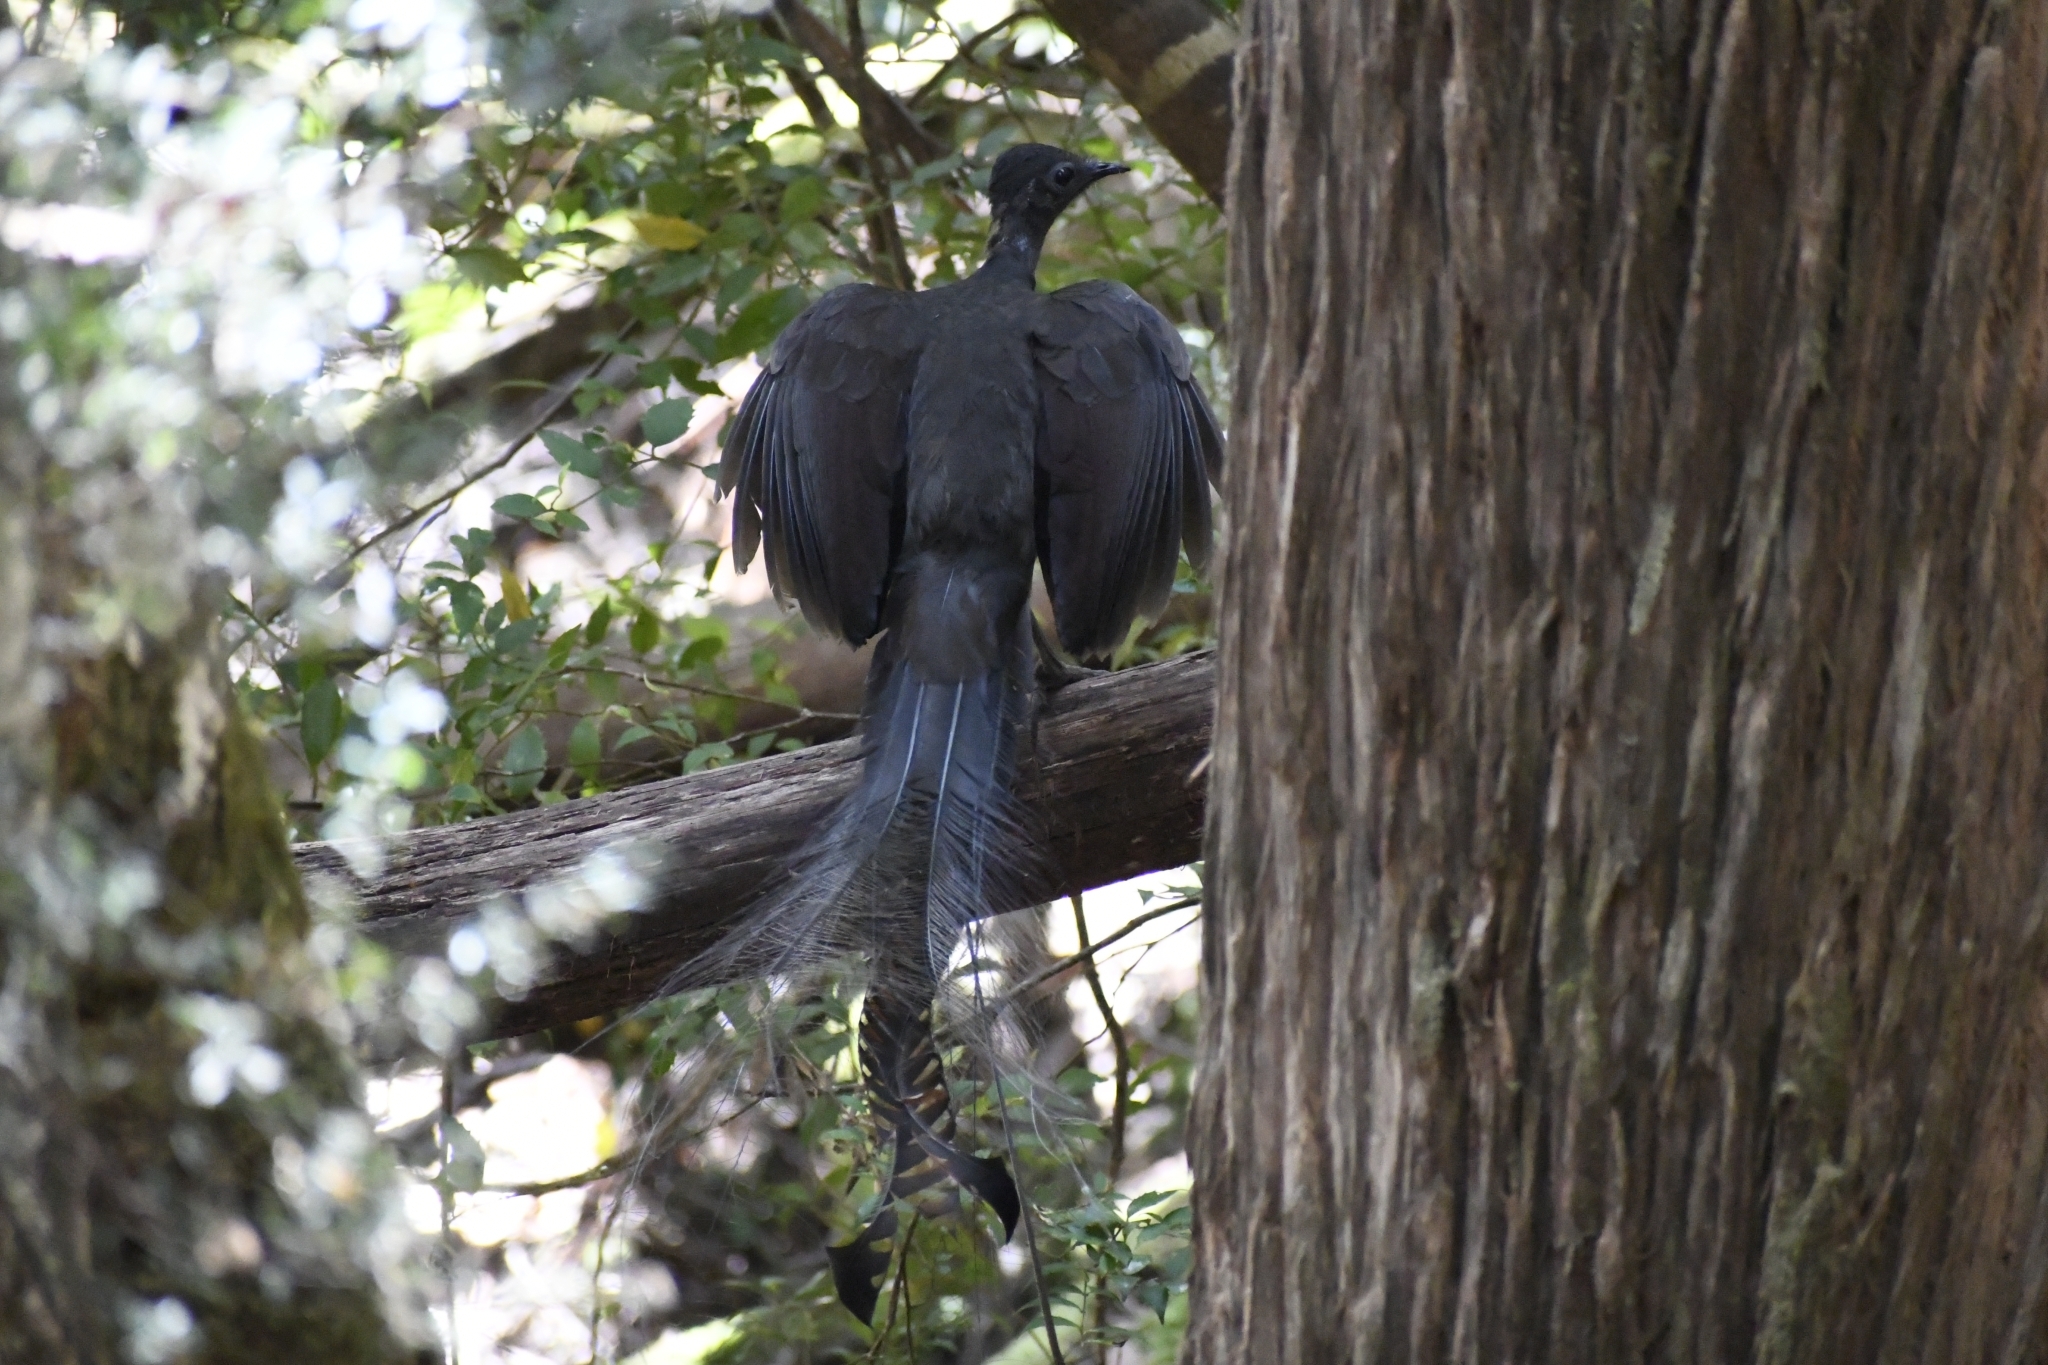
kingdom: Animalia
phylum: Chordata
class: Aves
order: Passeriformes
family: Menuridae
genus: Menura
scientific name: Menura novaehollandiae
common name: Superb lyrebird
